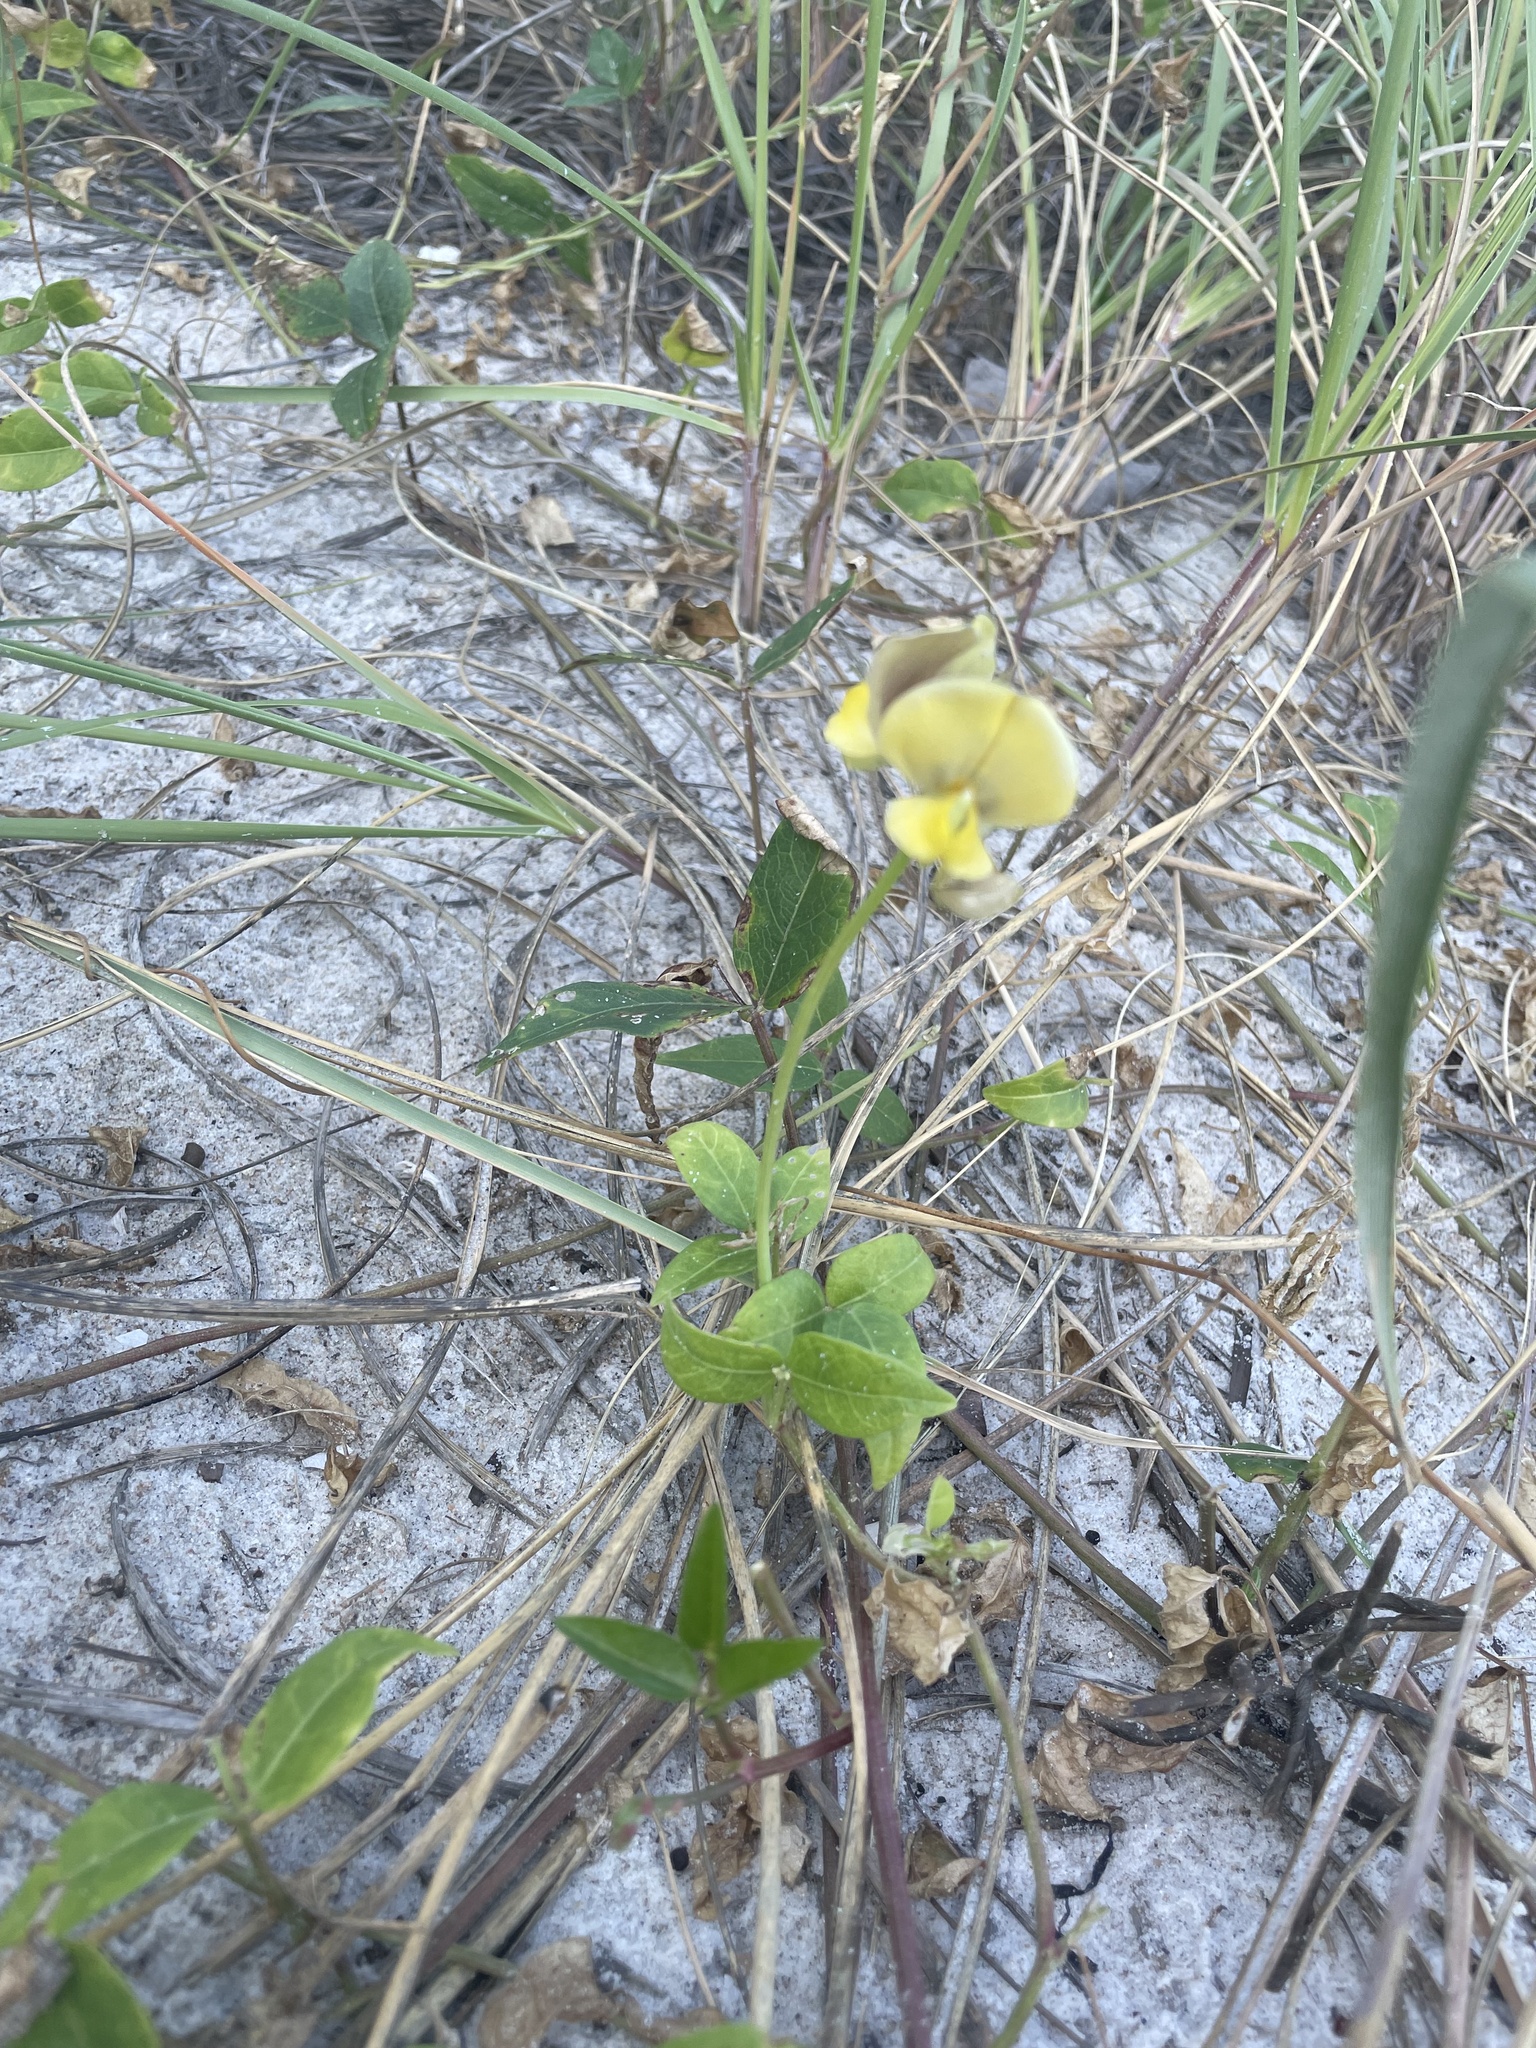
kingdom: Plantae
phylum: Tracheophyta
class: Magnoliopsida
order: Fabales
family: Fabaceae
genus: Vigna
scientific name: Vigna luteola
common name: Hairypod cowpea
